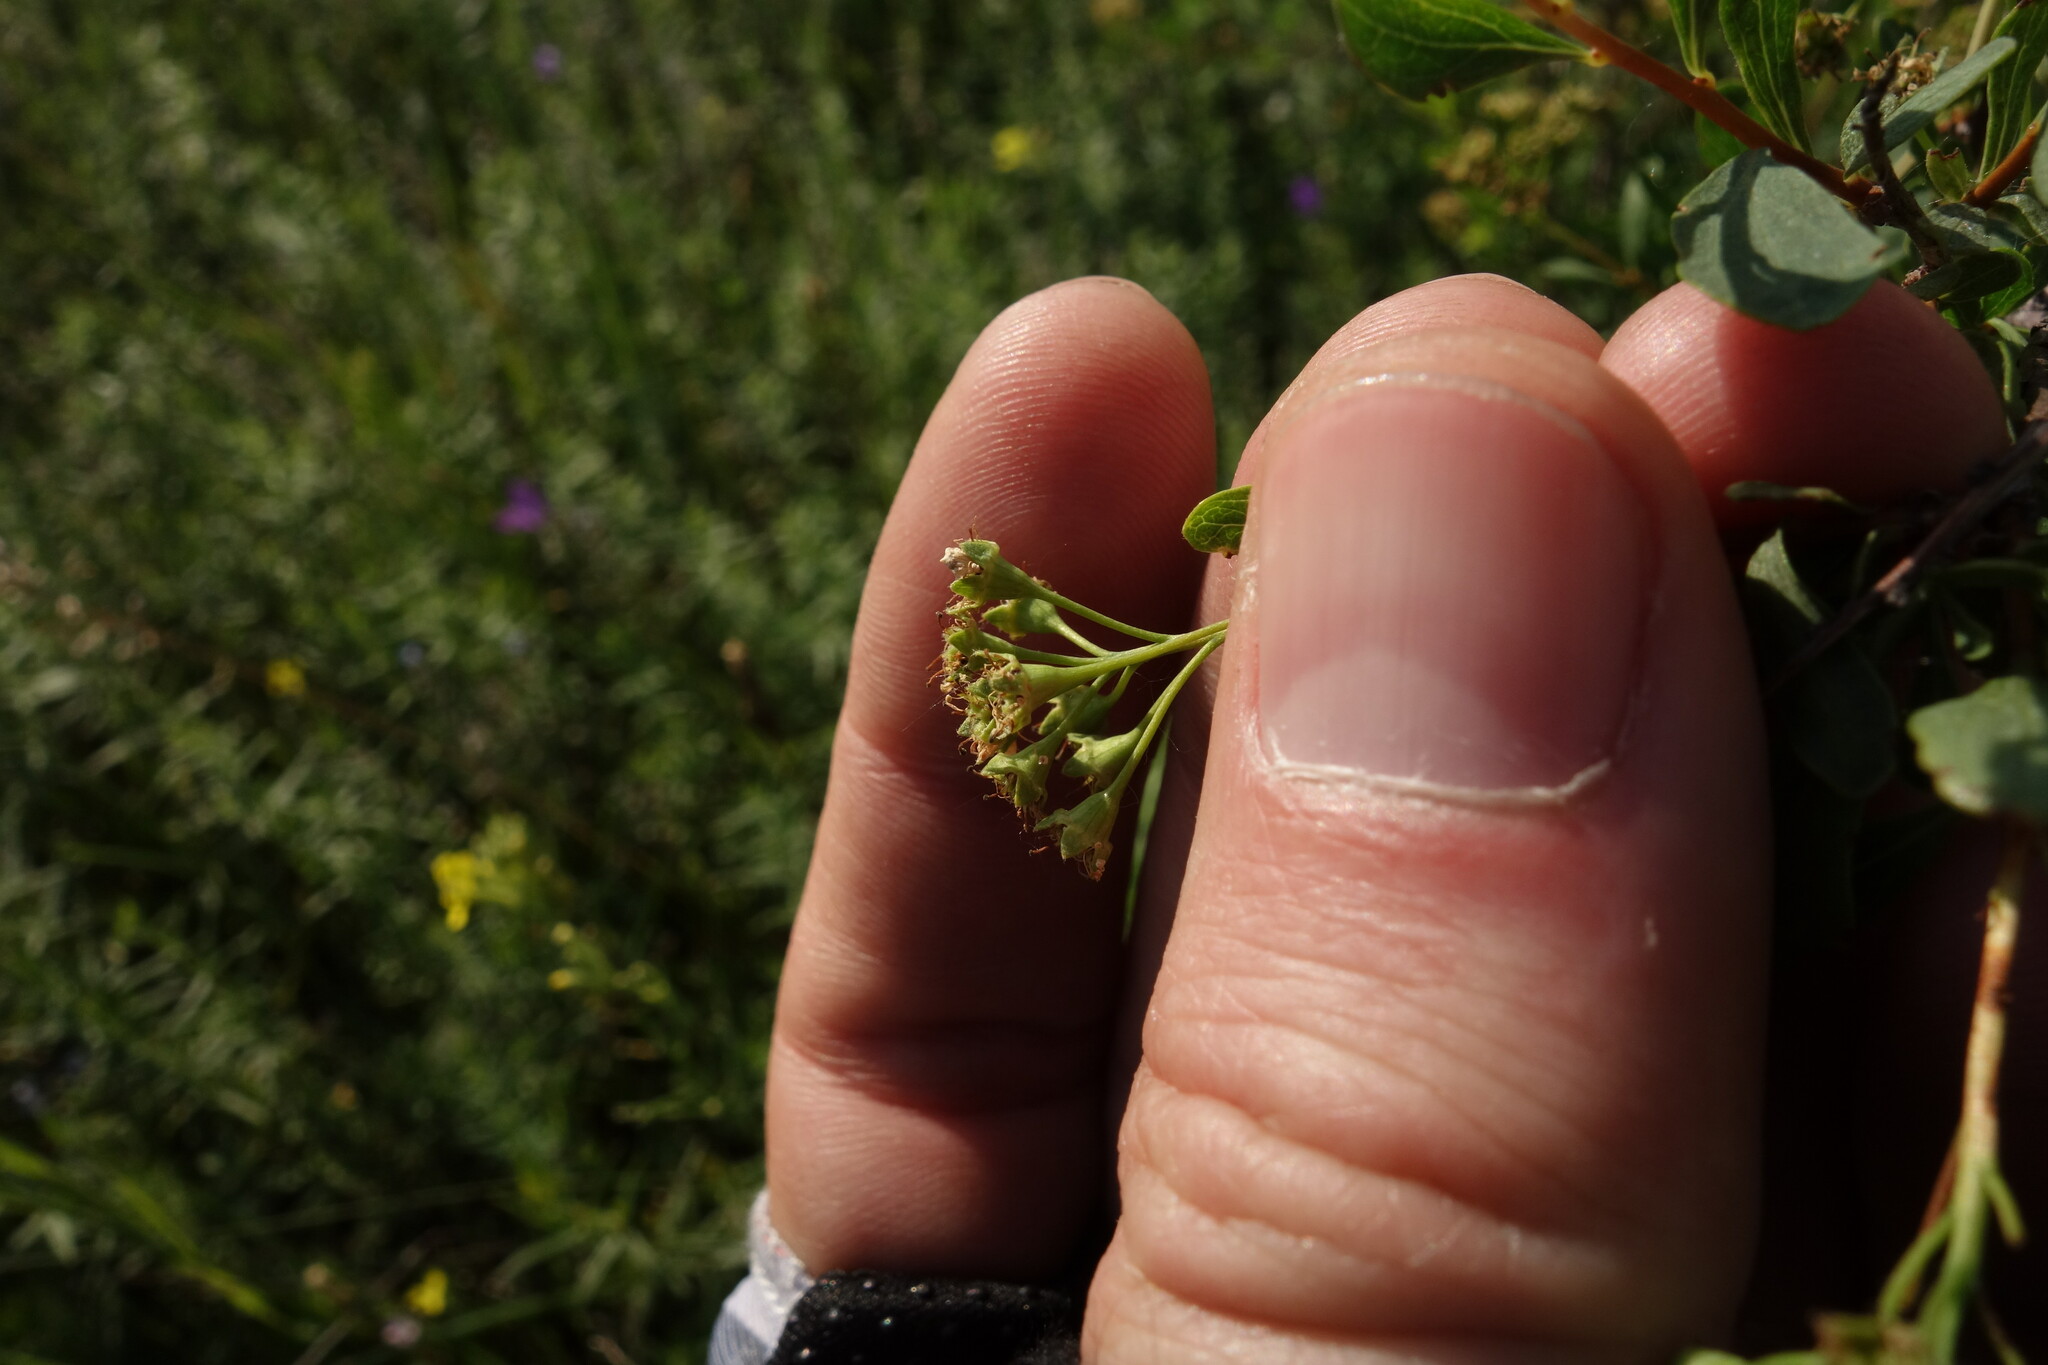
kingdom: Plantae
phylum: Tracheophyta
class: Magnoliopsida
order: Rosales
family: Rosaceae
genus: Spiraea
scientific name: Spiraea crenata
